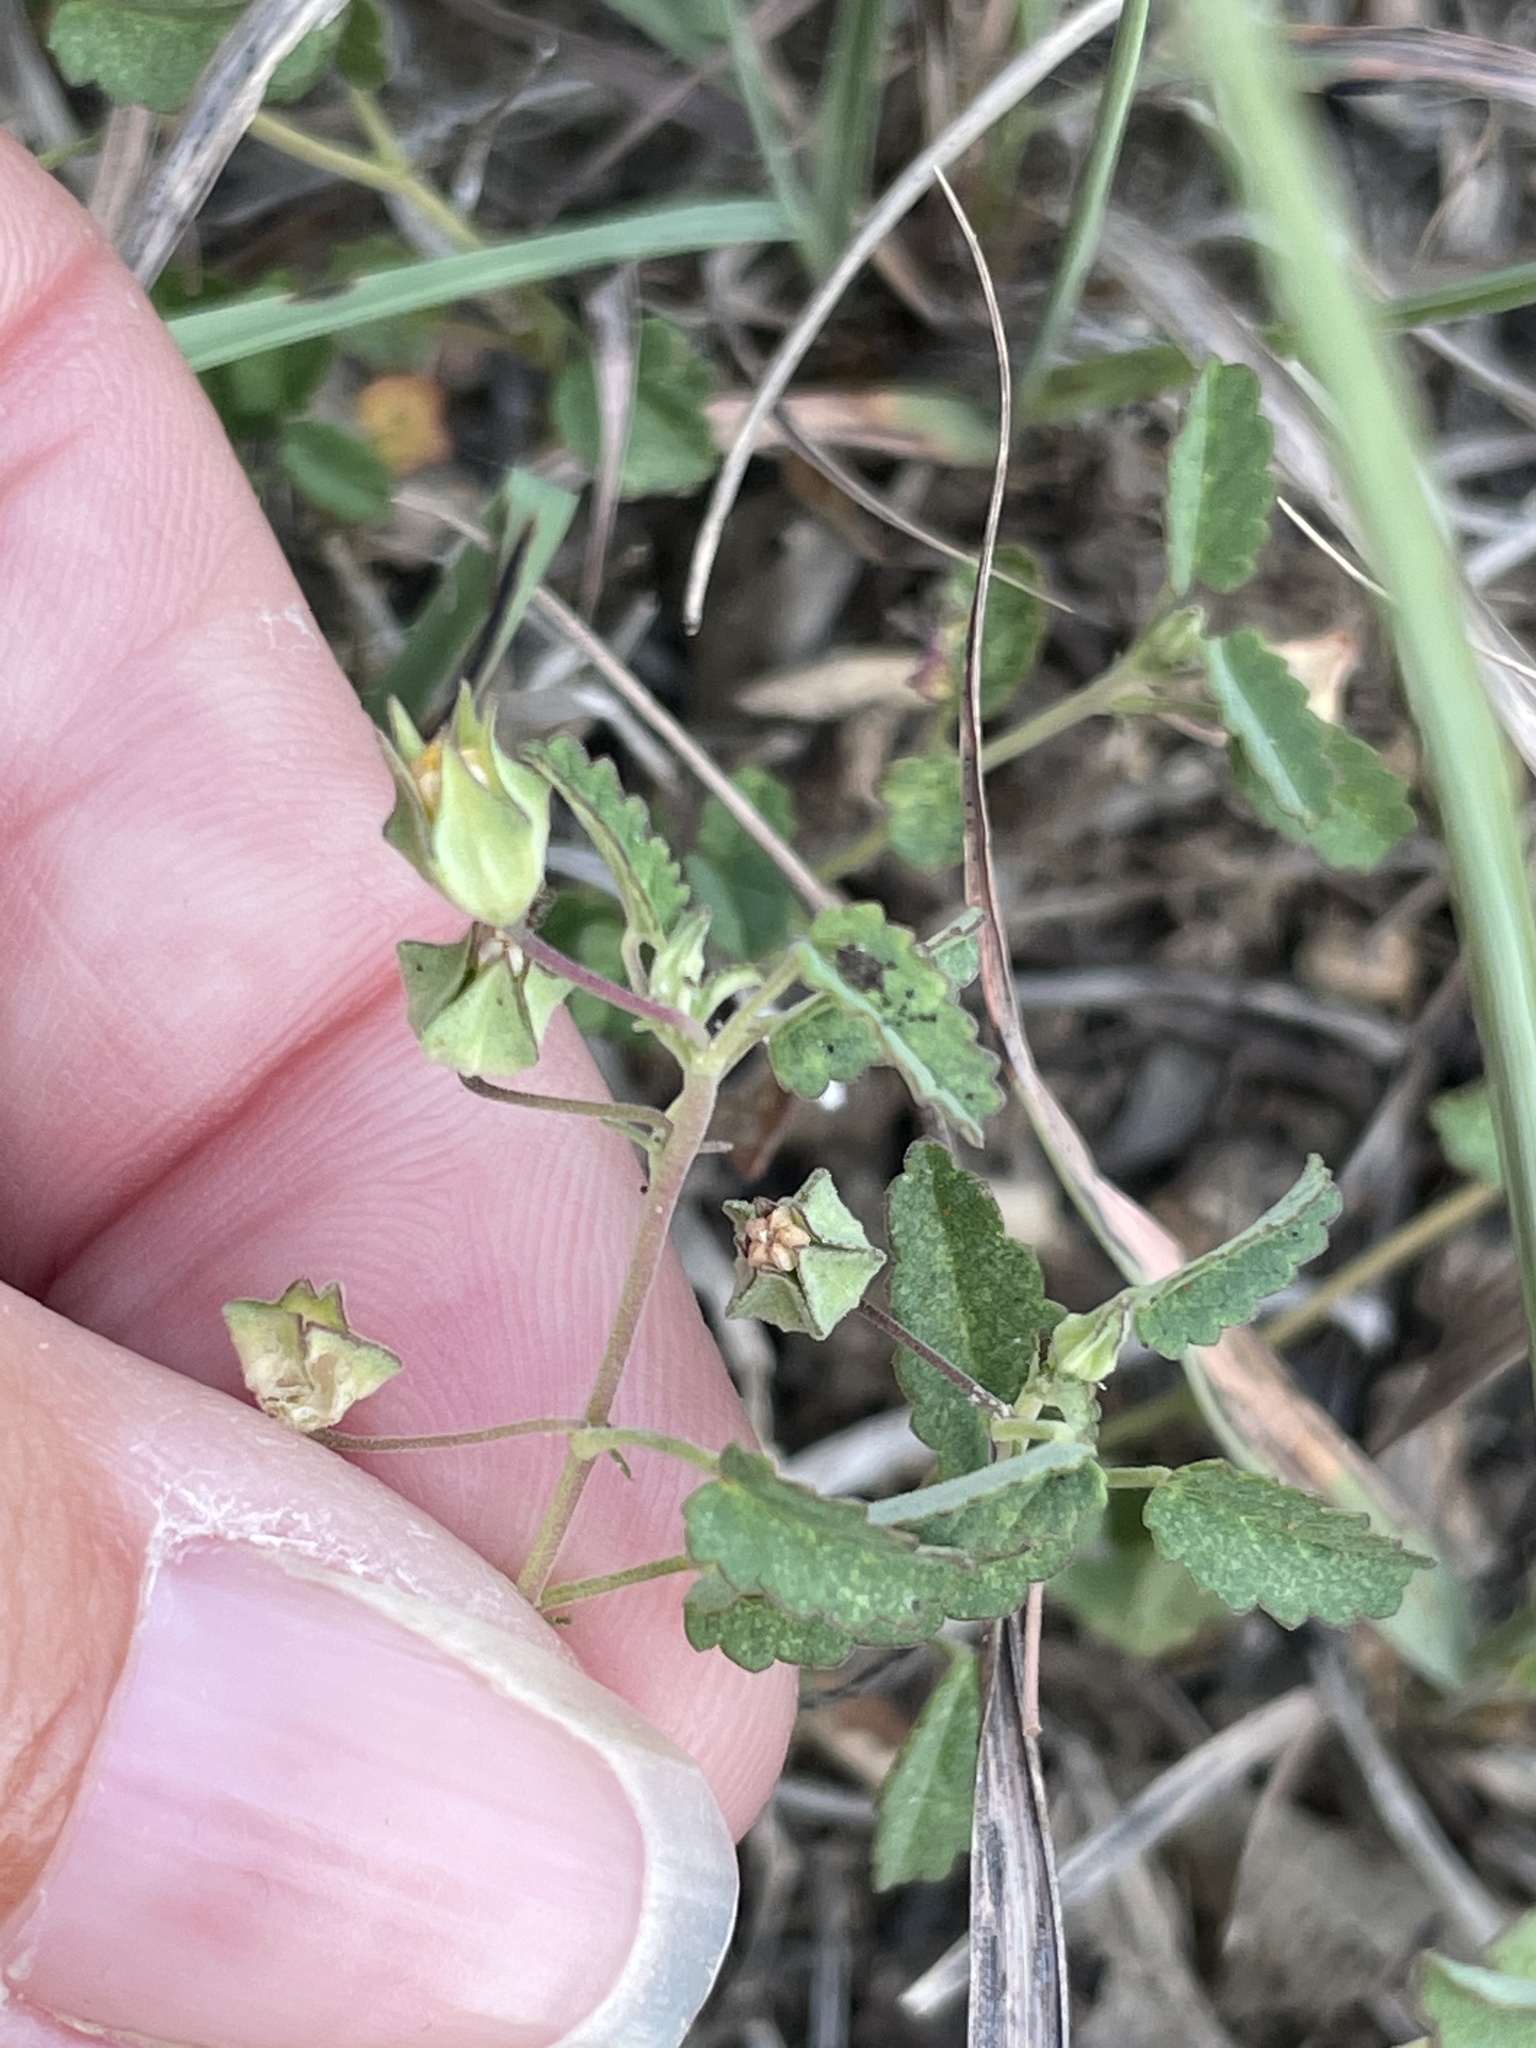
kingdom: Plantae
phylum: Tracheophyta
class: Magnoliopsida
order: Malvales
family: Malvaceae
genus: Sida
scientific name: Sida spinosa
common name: Prickly fanpetals
